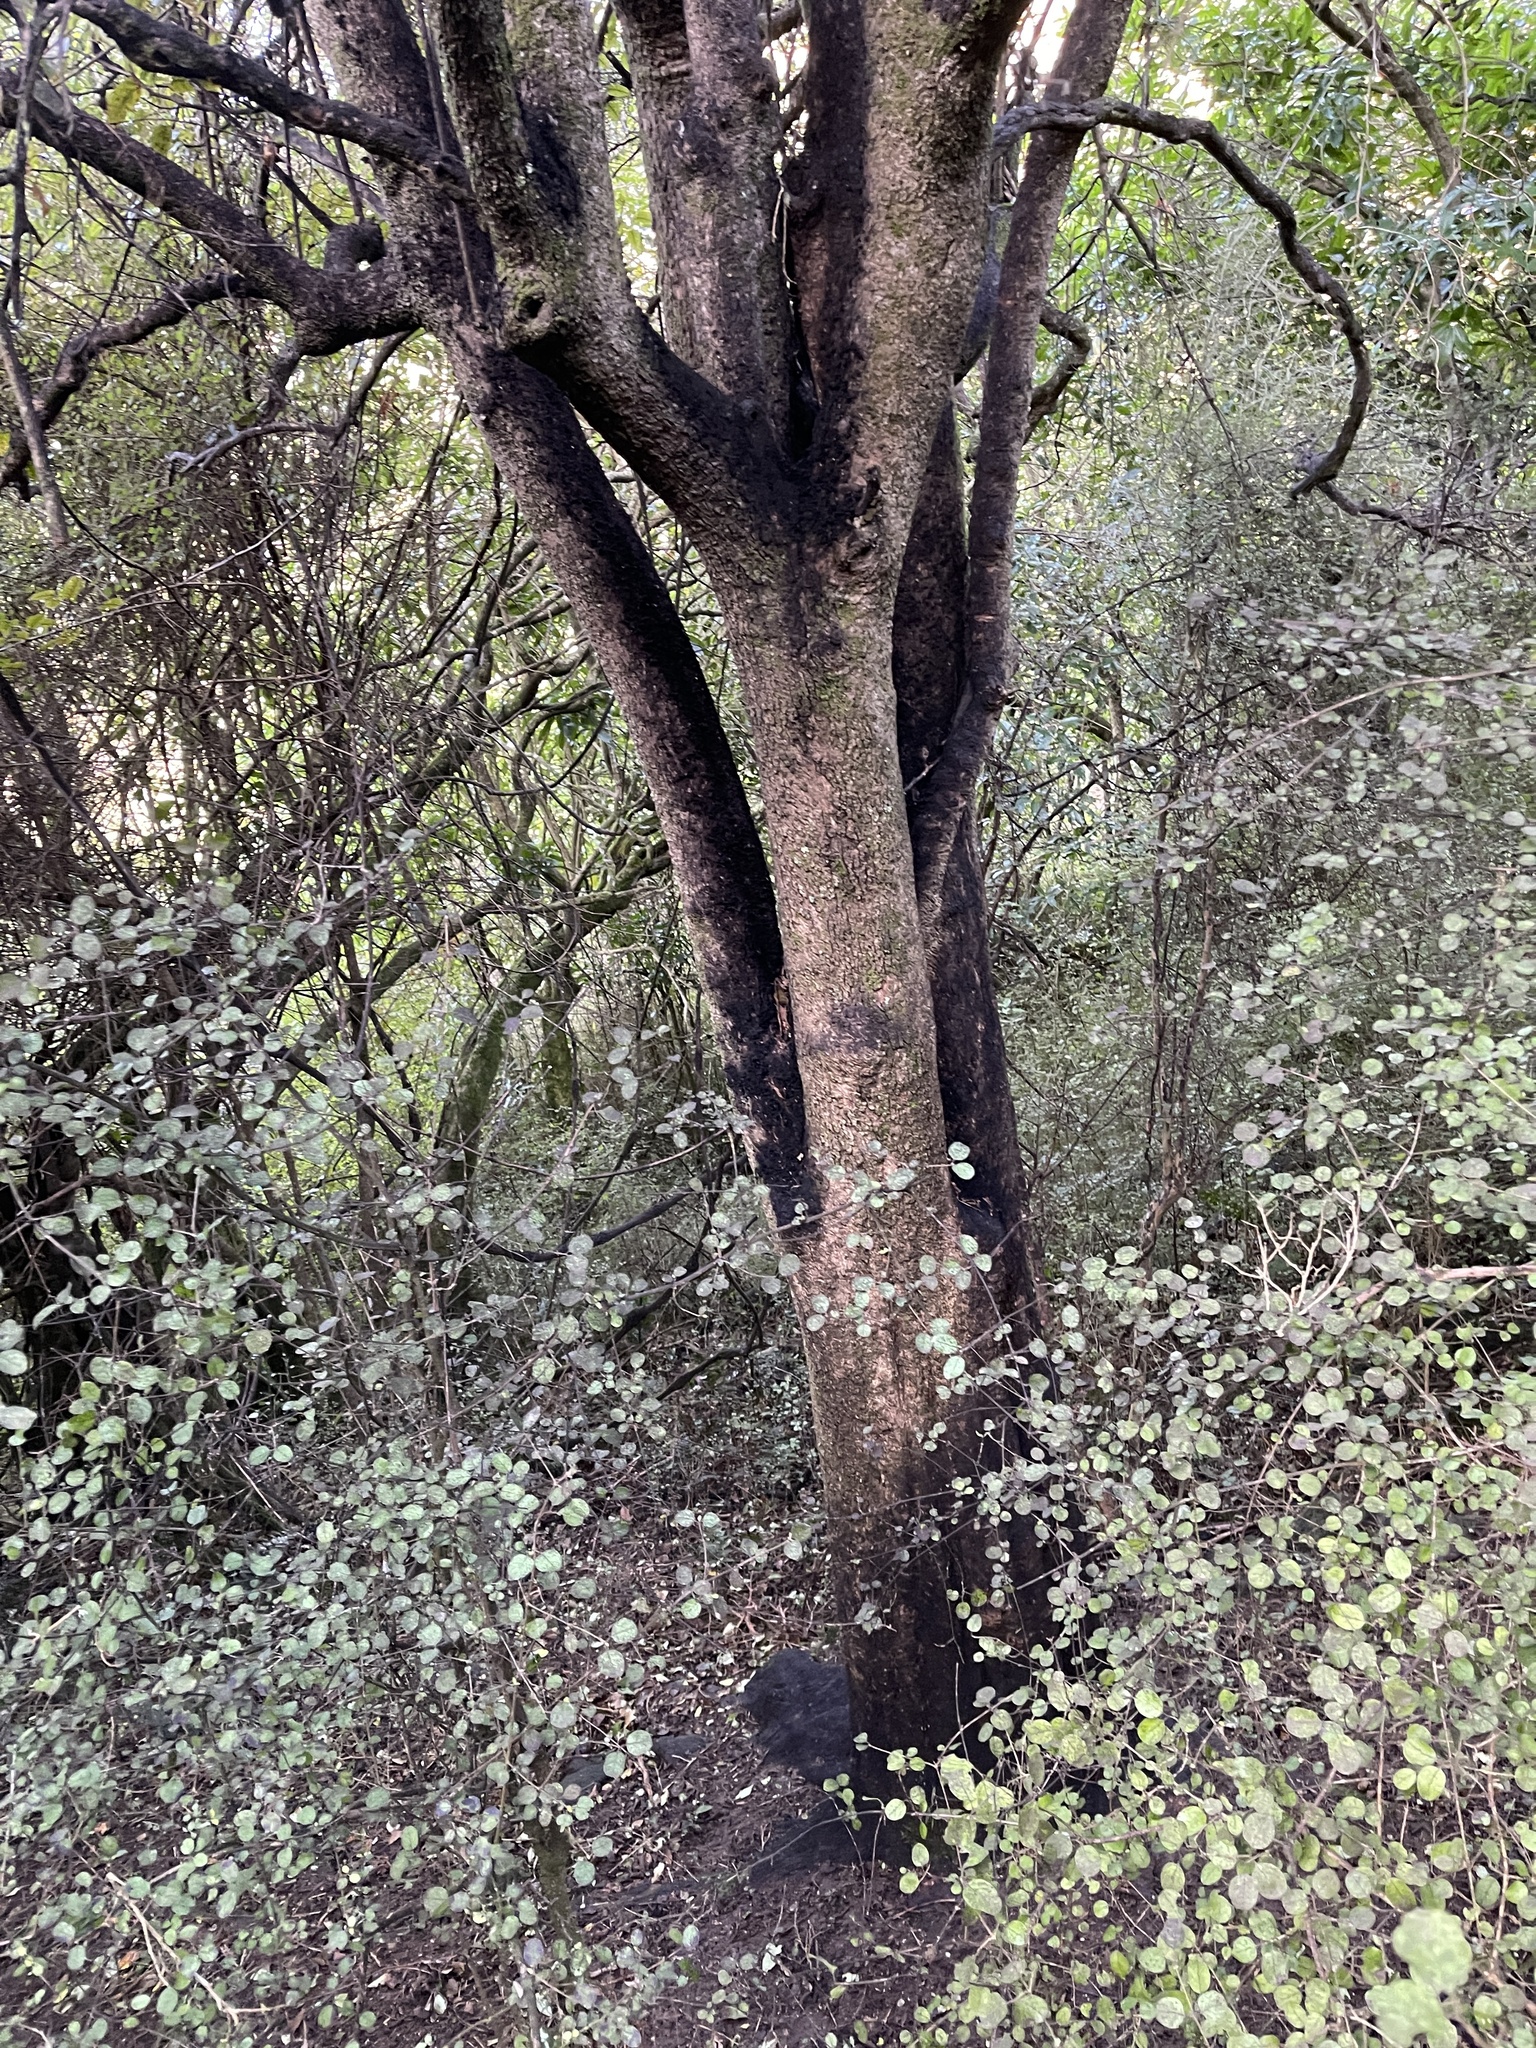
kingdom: Plantae
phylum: Tracheophyta
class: Magnoliopsida
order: Apiales
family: Pennantiaceae
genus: Pennantia
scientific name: Pennantia corymbosa
